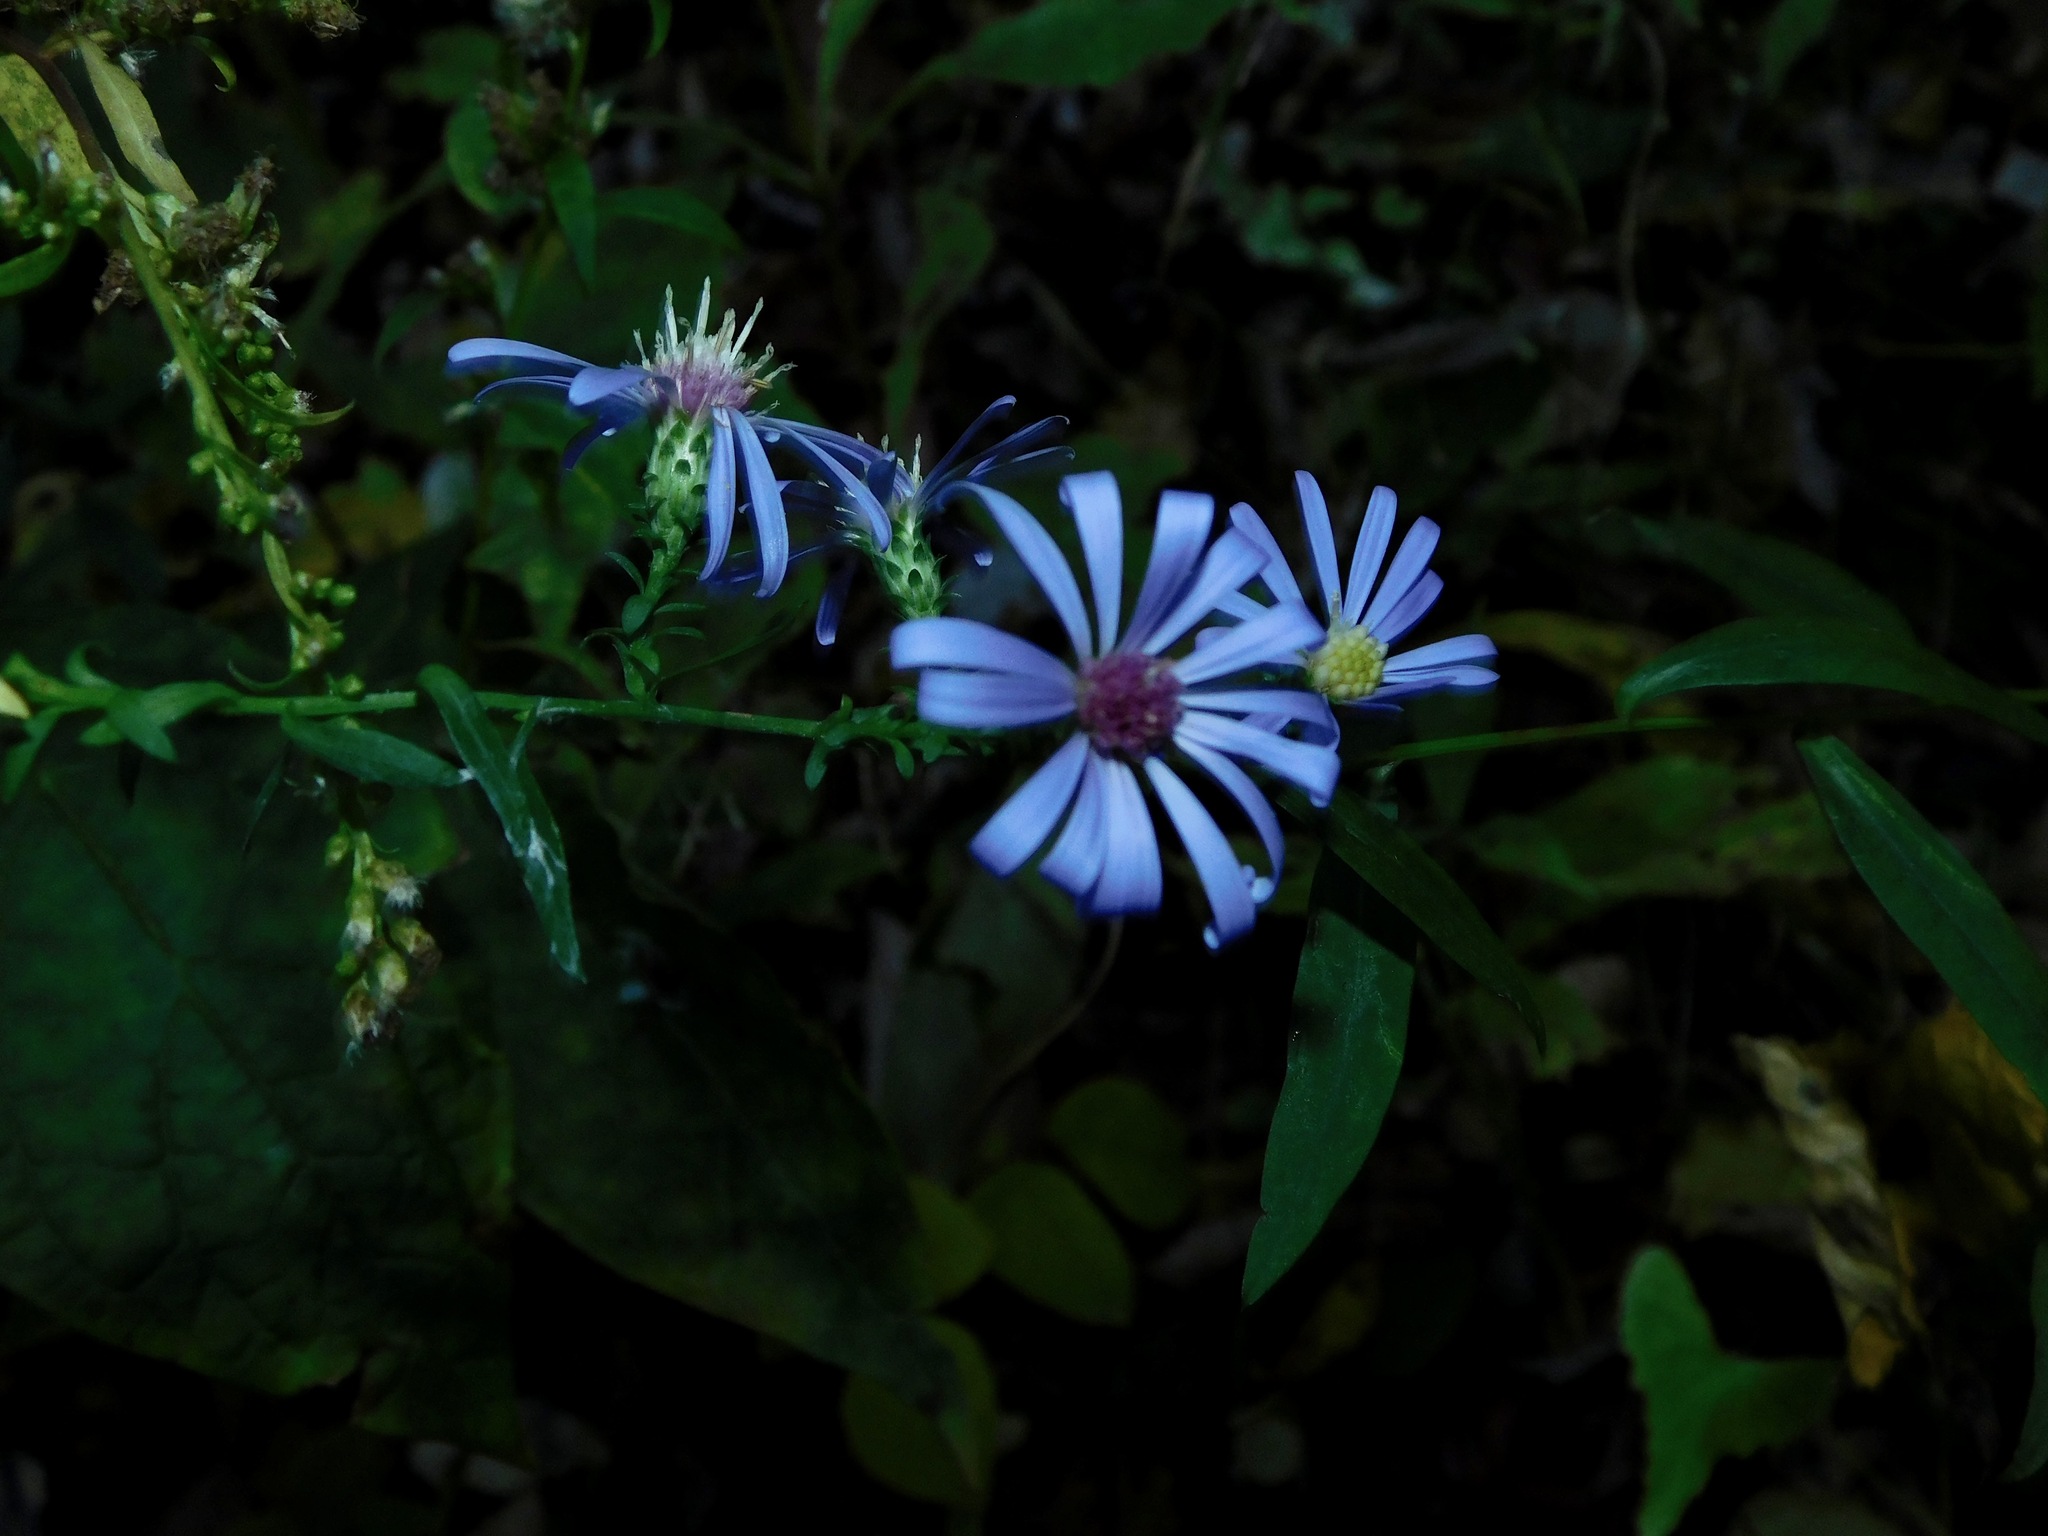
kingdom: Plantae
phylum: Tracheophyta
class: Magnoliopsida
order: Asterales
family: Asteraceae
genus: Symphyotrichum
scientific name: Symphyotrichum retroflexum
